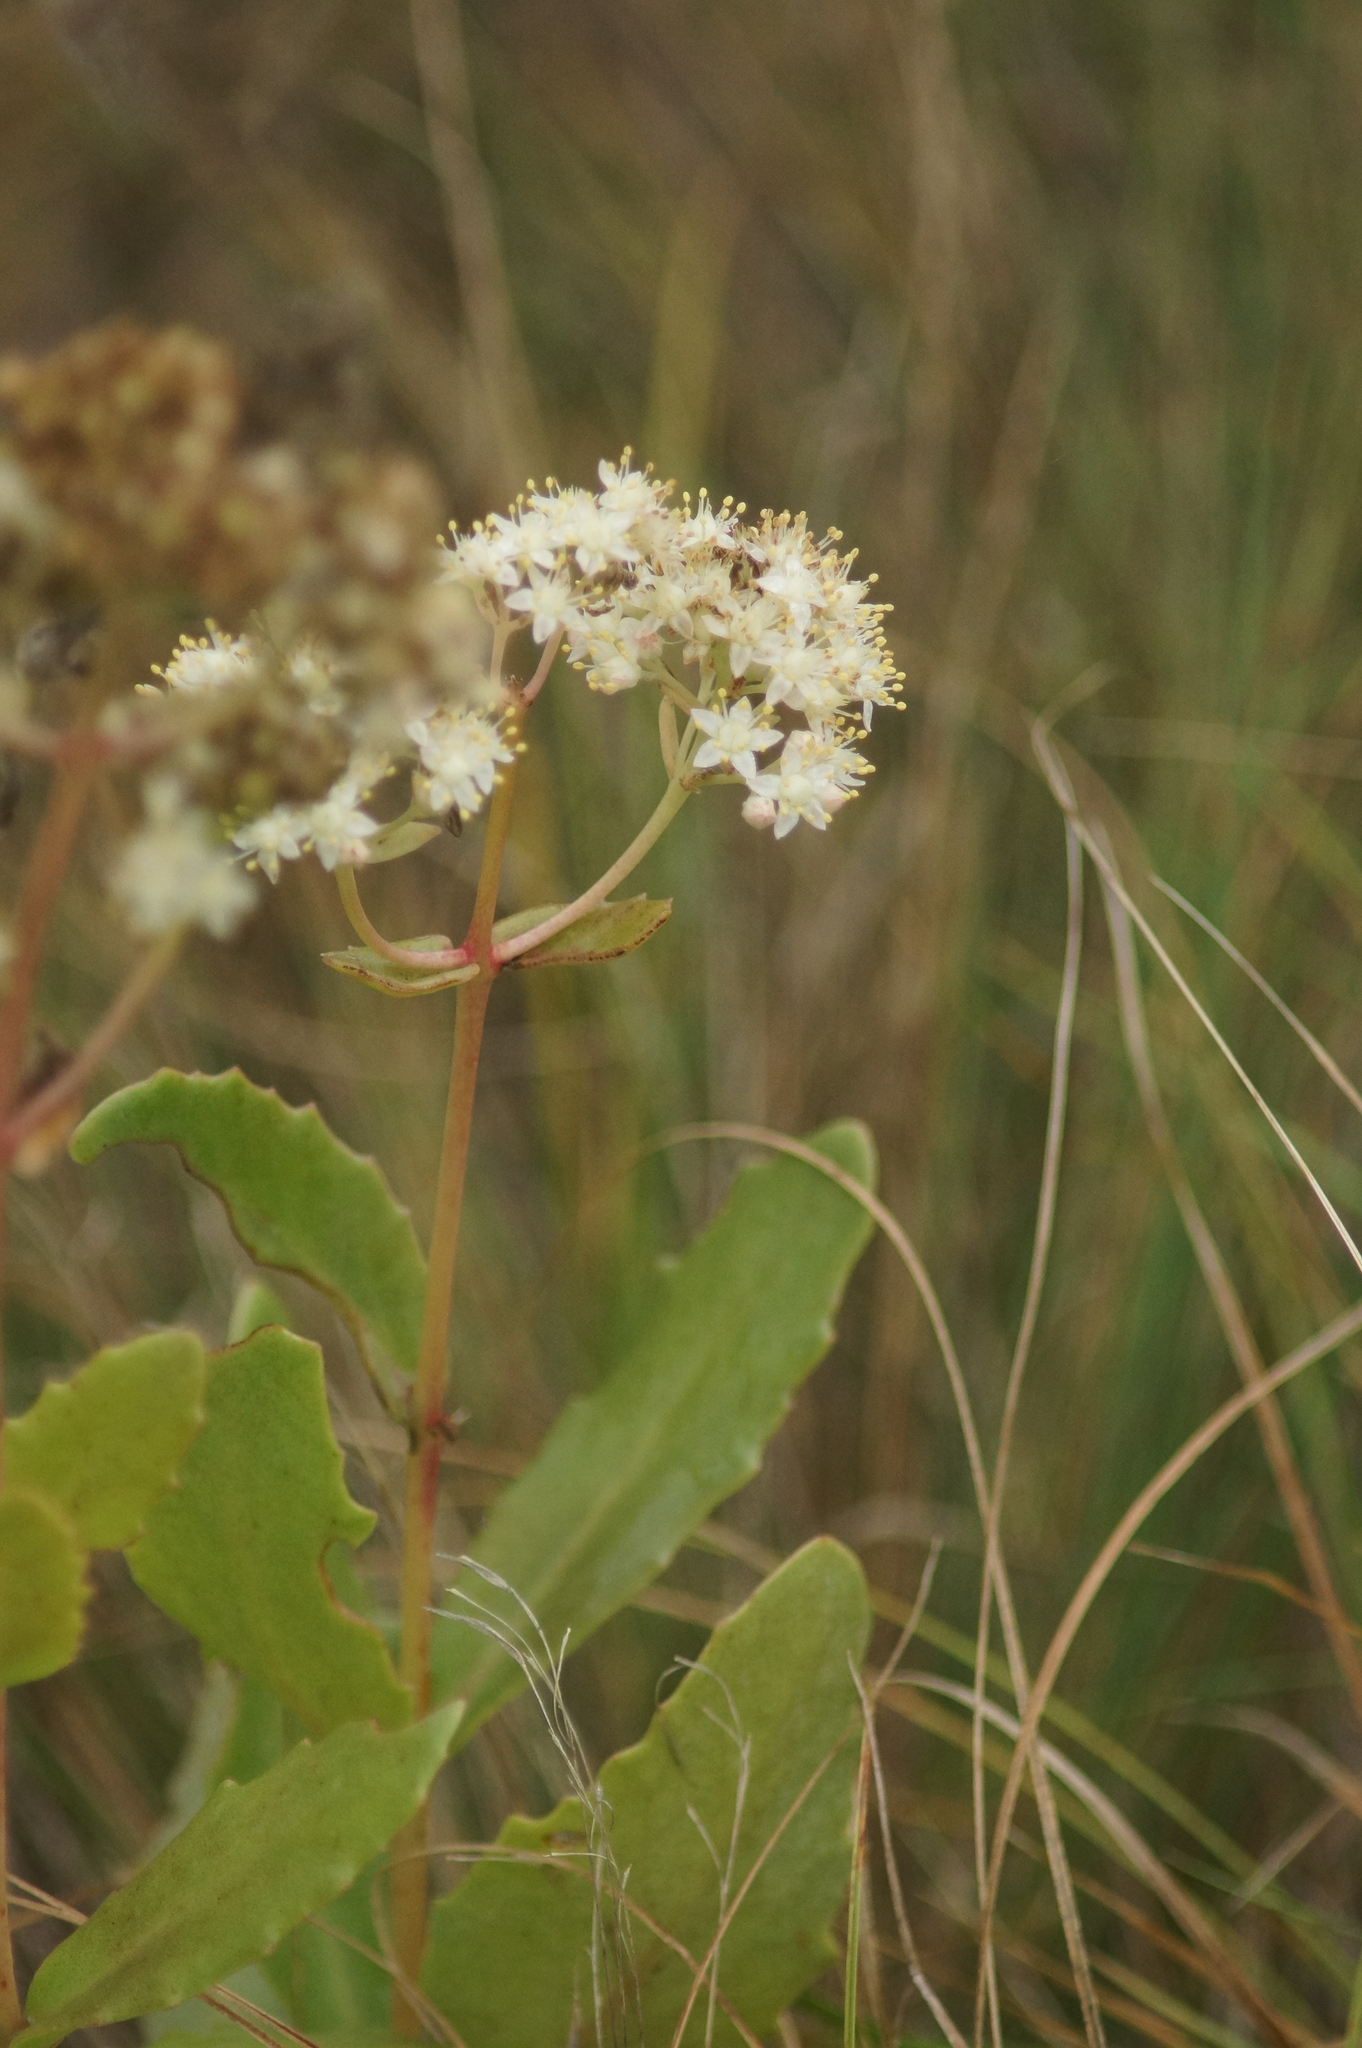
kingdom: Plantae
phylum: Tracheophyta
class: Magnoliopsida
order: Saxifragales
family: Crassulaceae
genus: Hylotelephium
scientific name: Hylotelephium maximum
